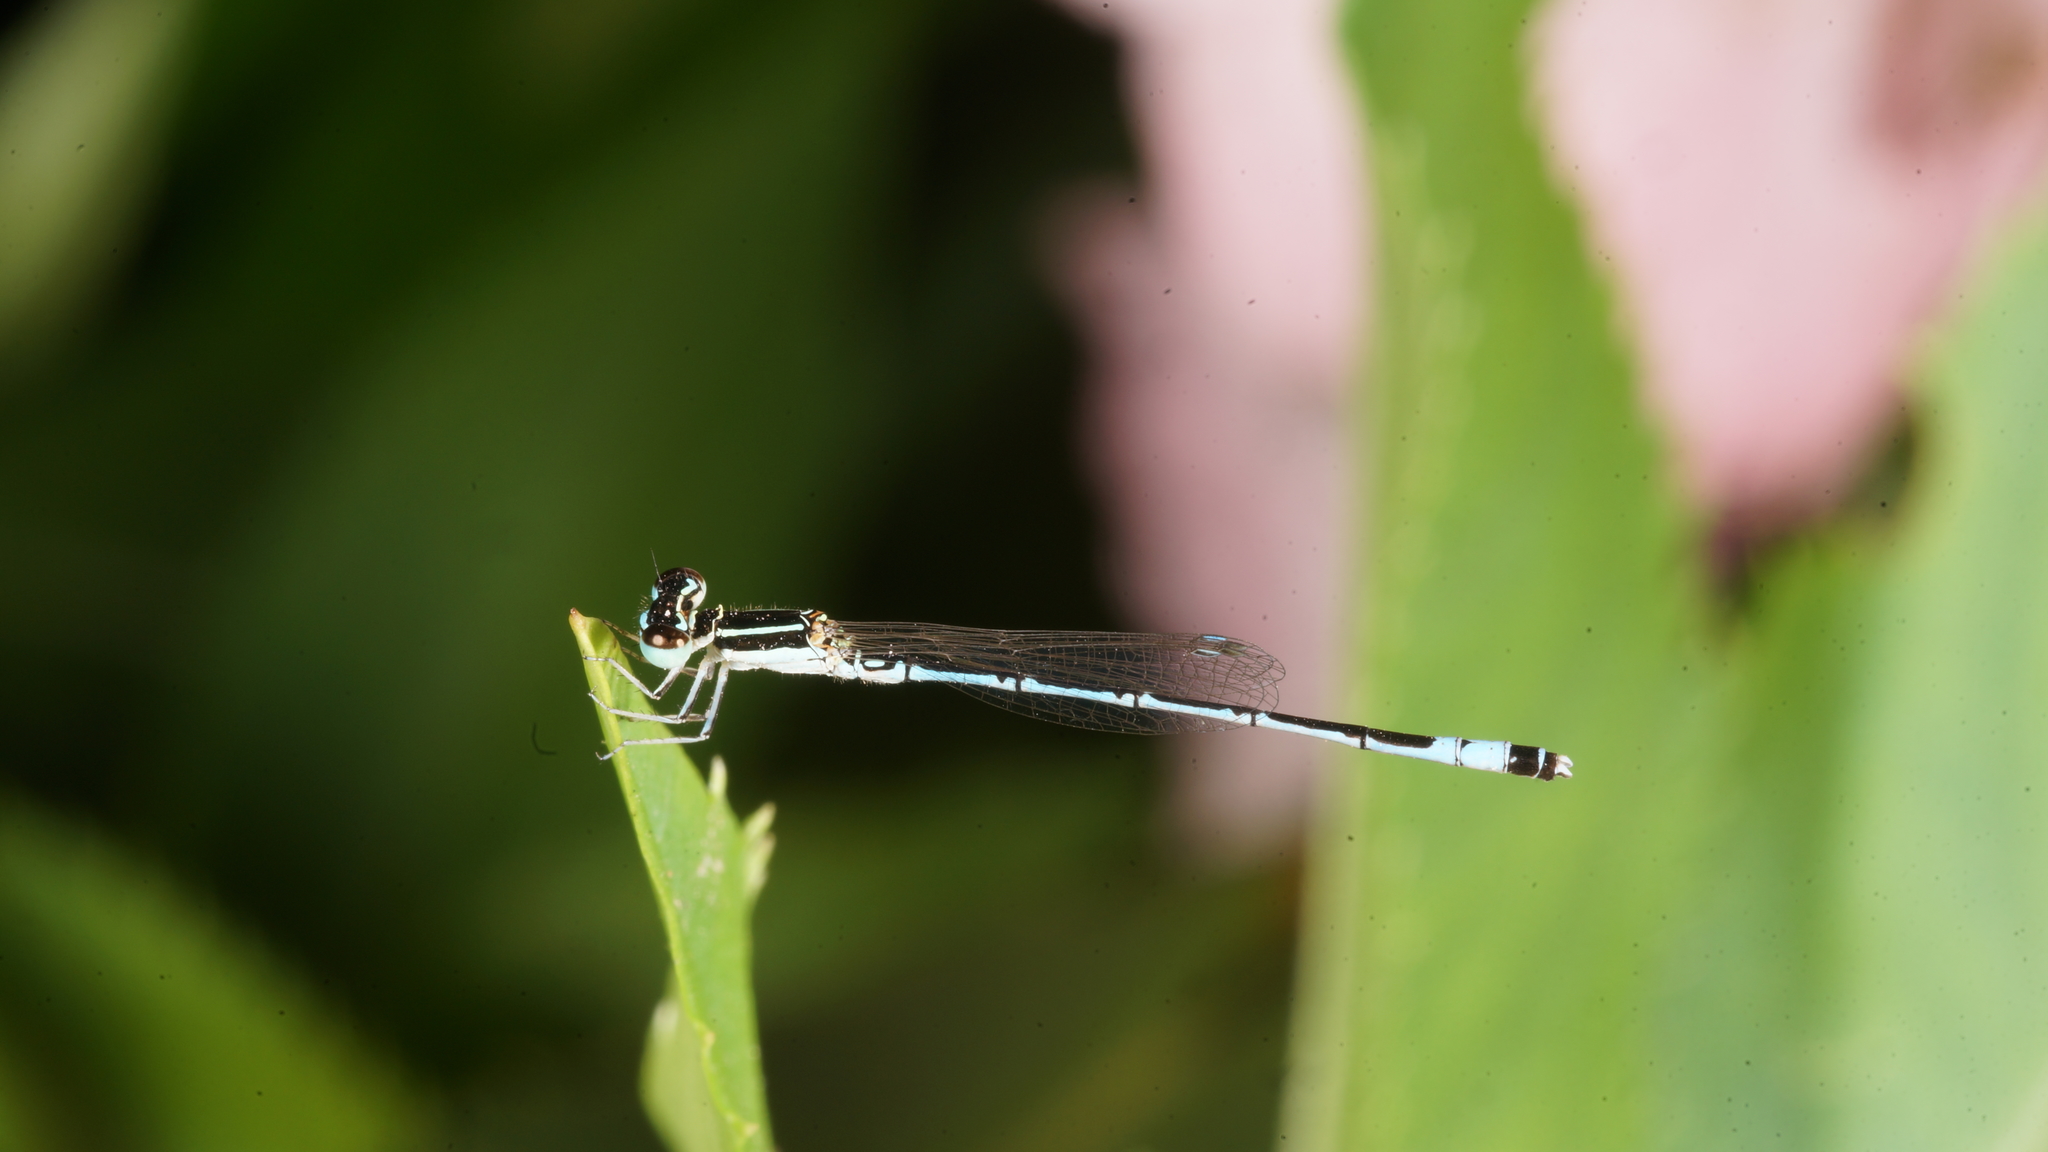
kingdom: Animalia
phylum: Arthropoda
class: Insecta
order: Odonata
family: Coenagrionidae
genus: Agriocnemis
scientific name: Agriocnemis nana
